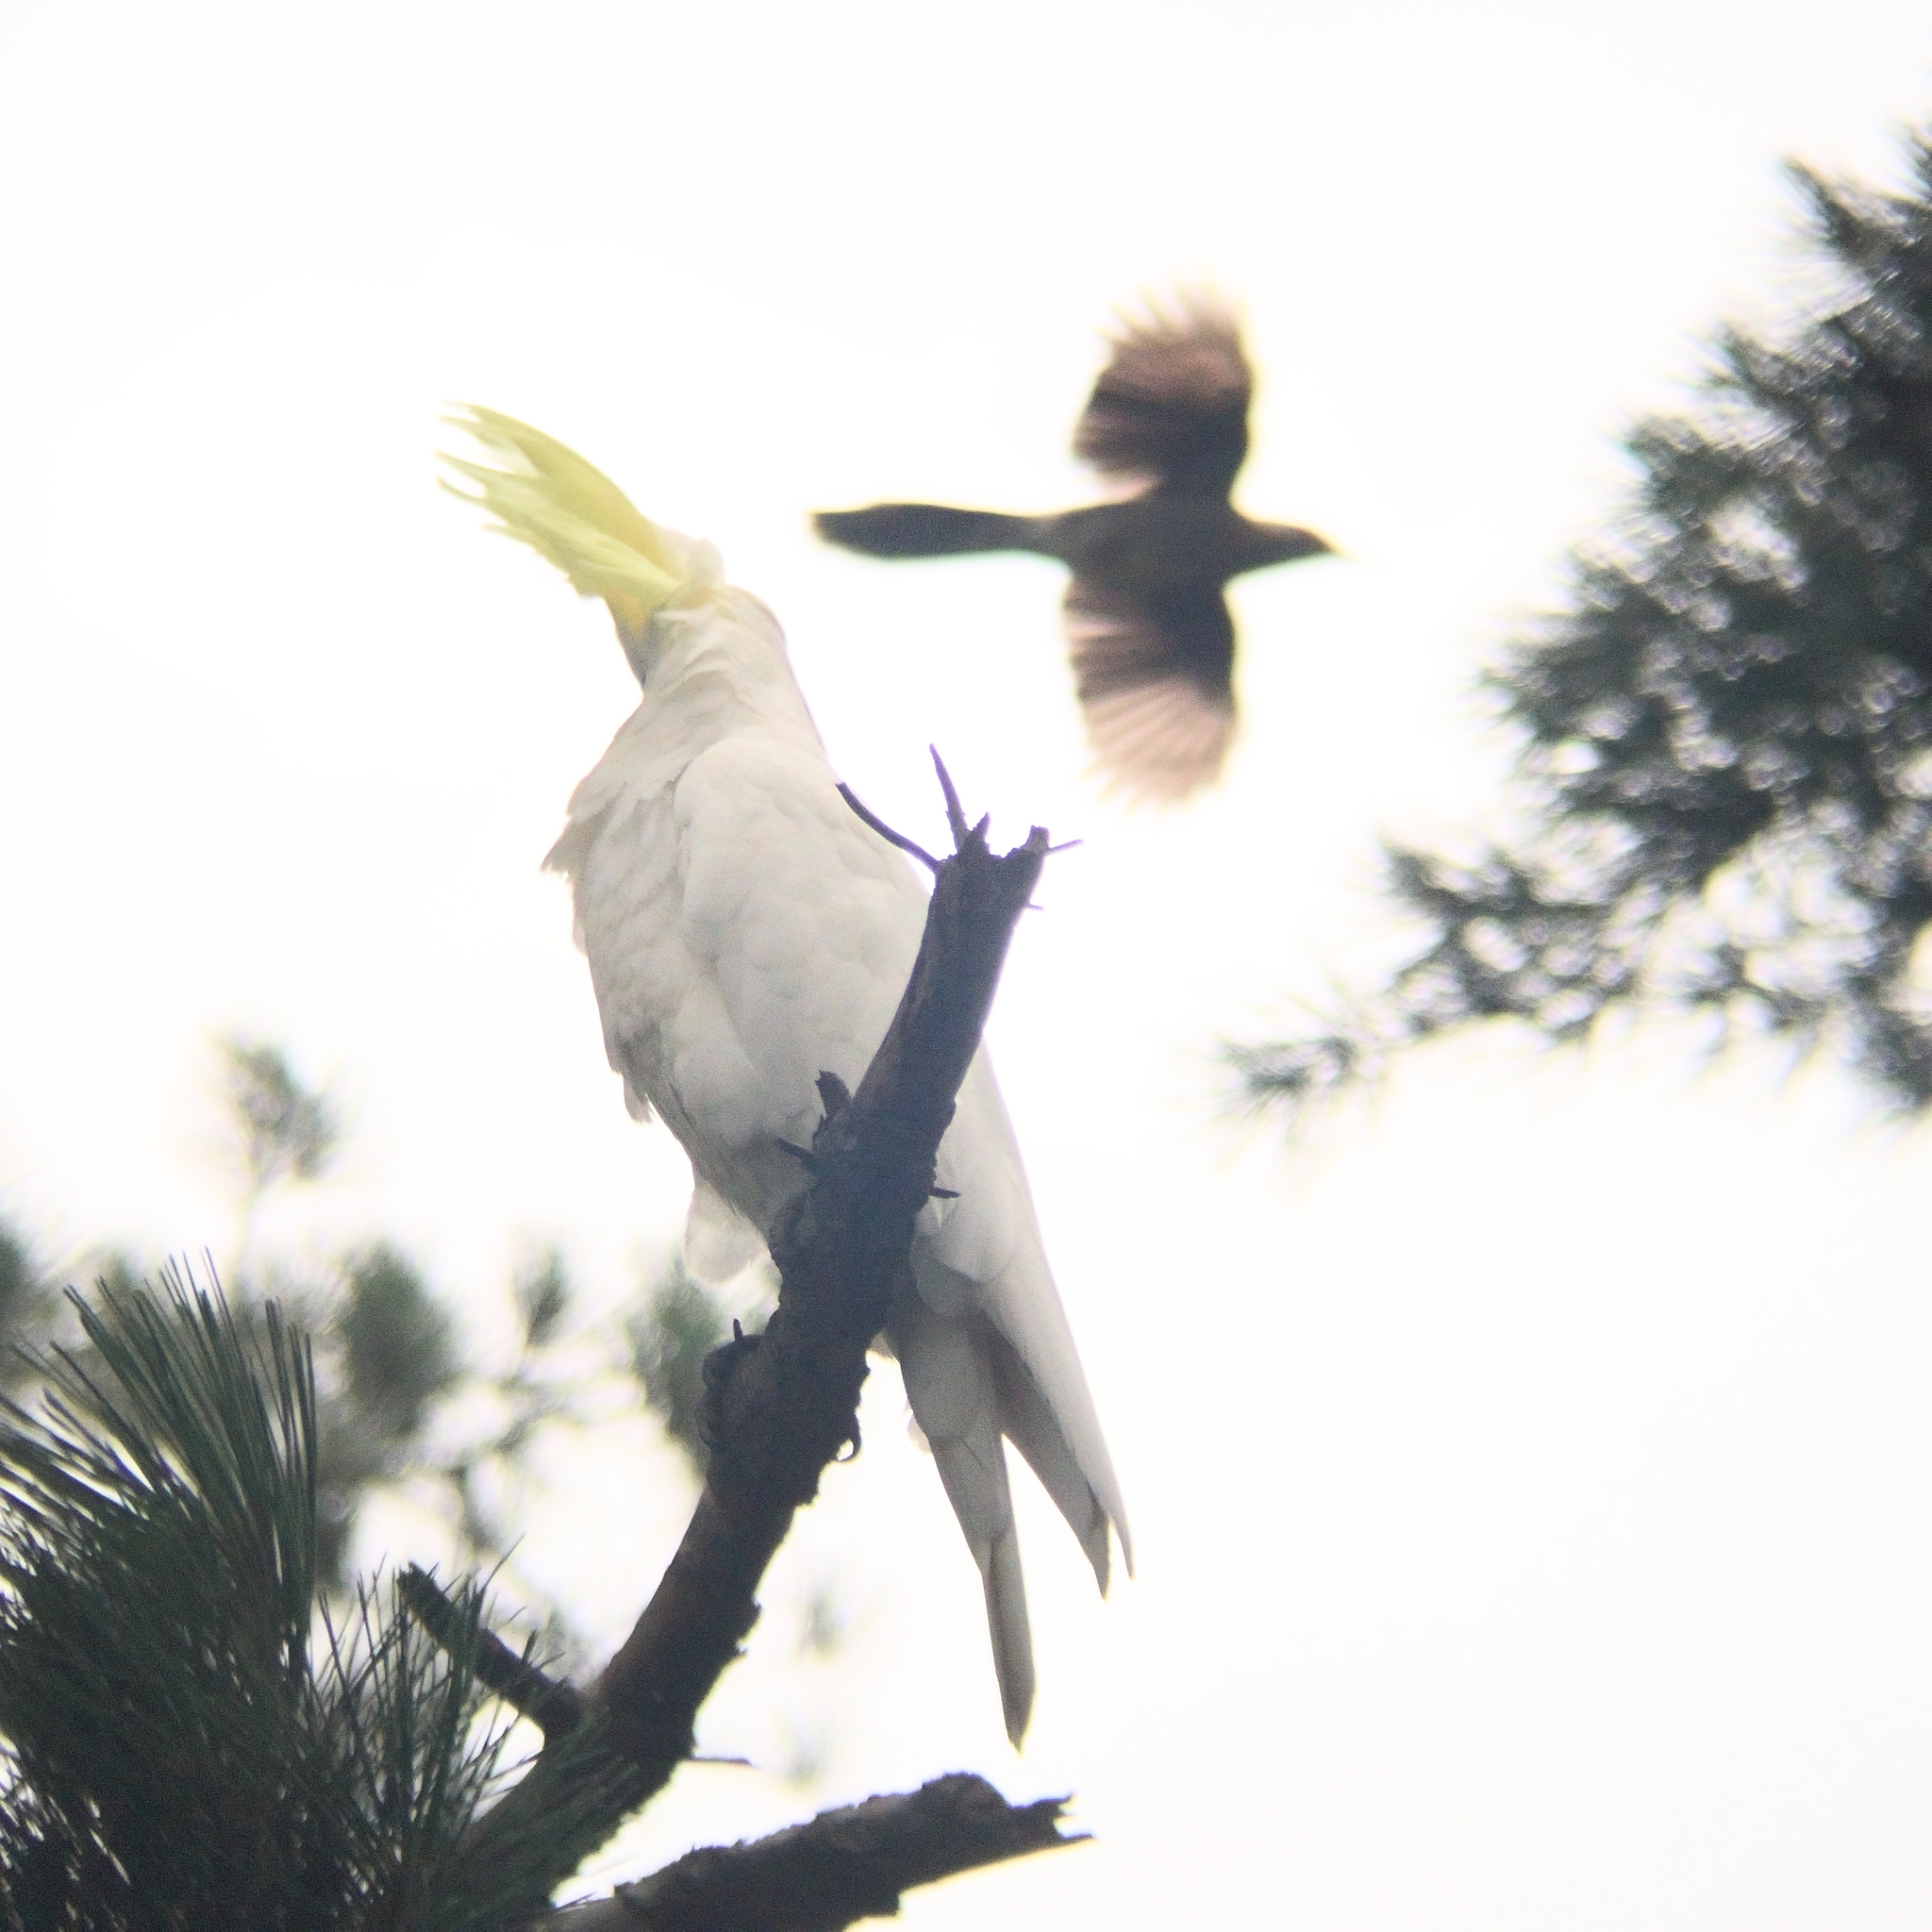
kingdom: Animalia
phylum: Chordata
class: Aves
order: Psittaciformes
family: Psittacidae
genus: Cacatua
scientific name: Cacatua galerita
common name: Sulphur-crested cockatoo
